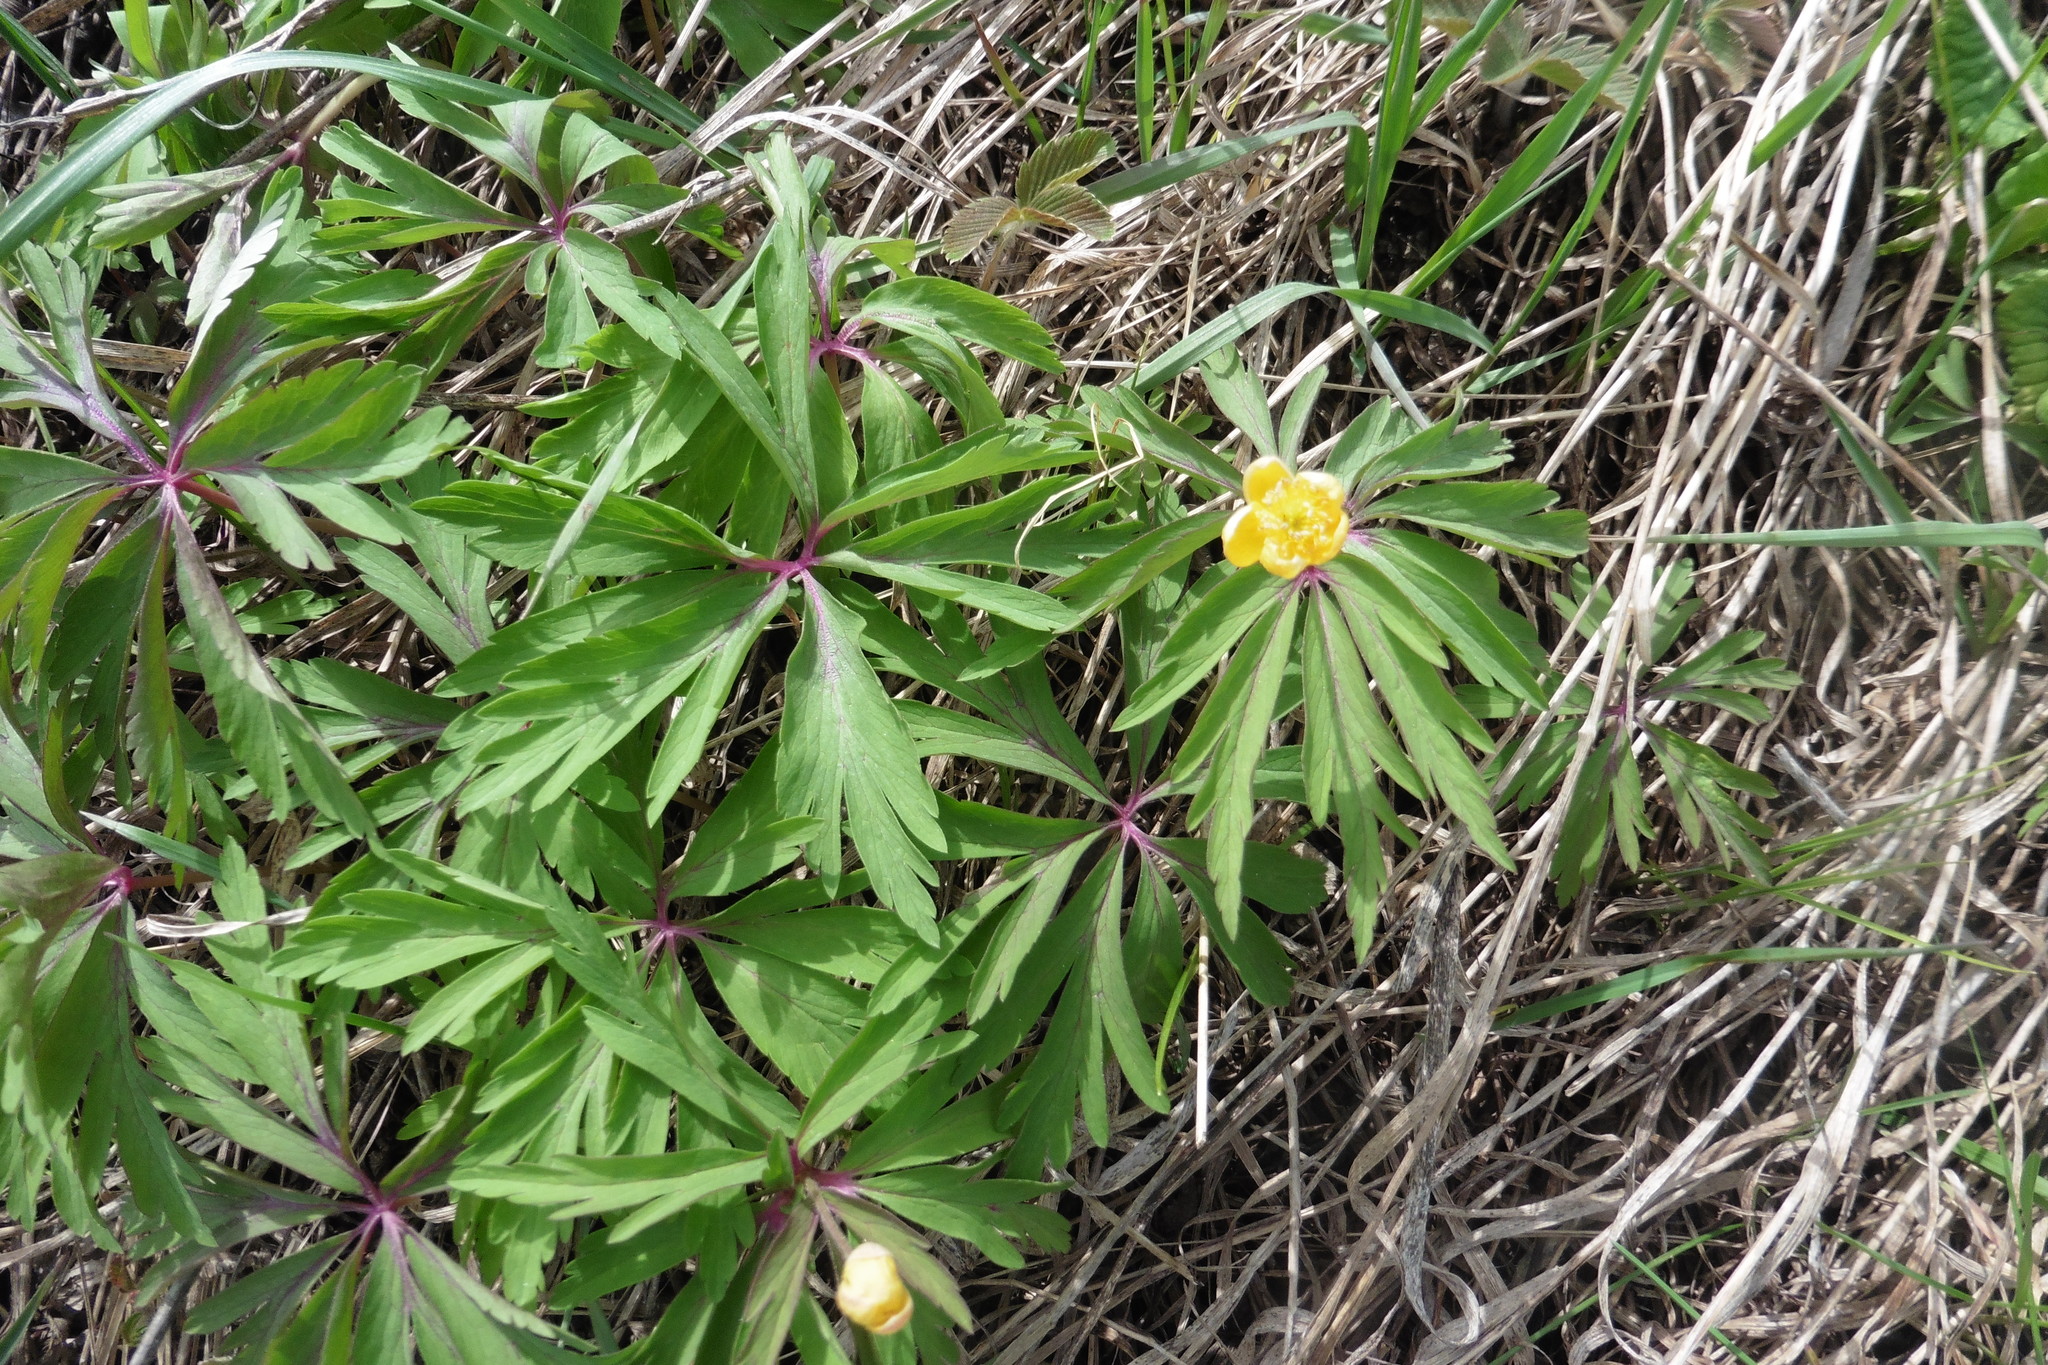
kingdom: Plantae
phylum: Tracheophyta
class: Magnoliopsida
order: Ranunculales
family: Ranunculaceae
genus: Anemone
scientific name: Anemone ranunculoides
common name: Yellow anemone
